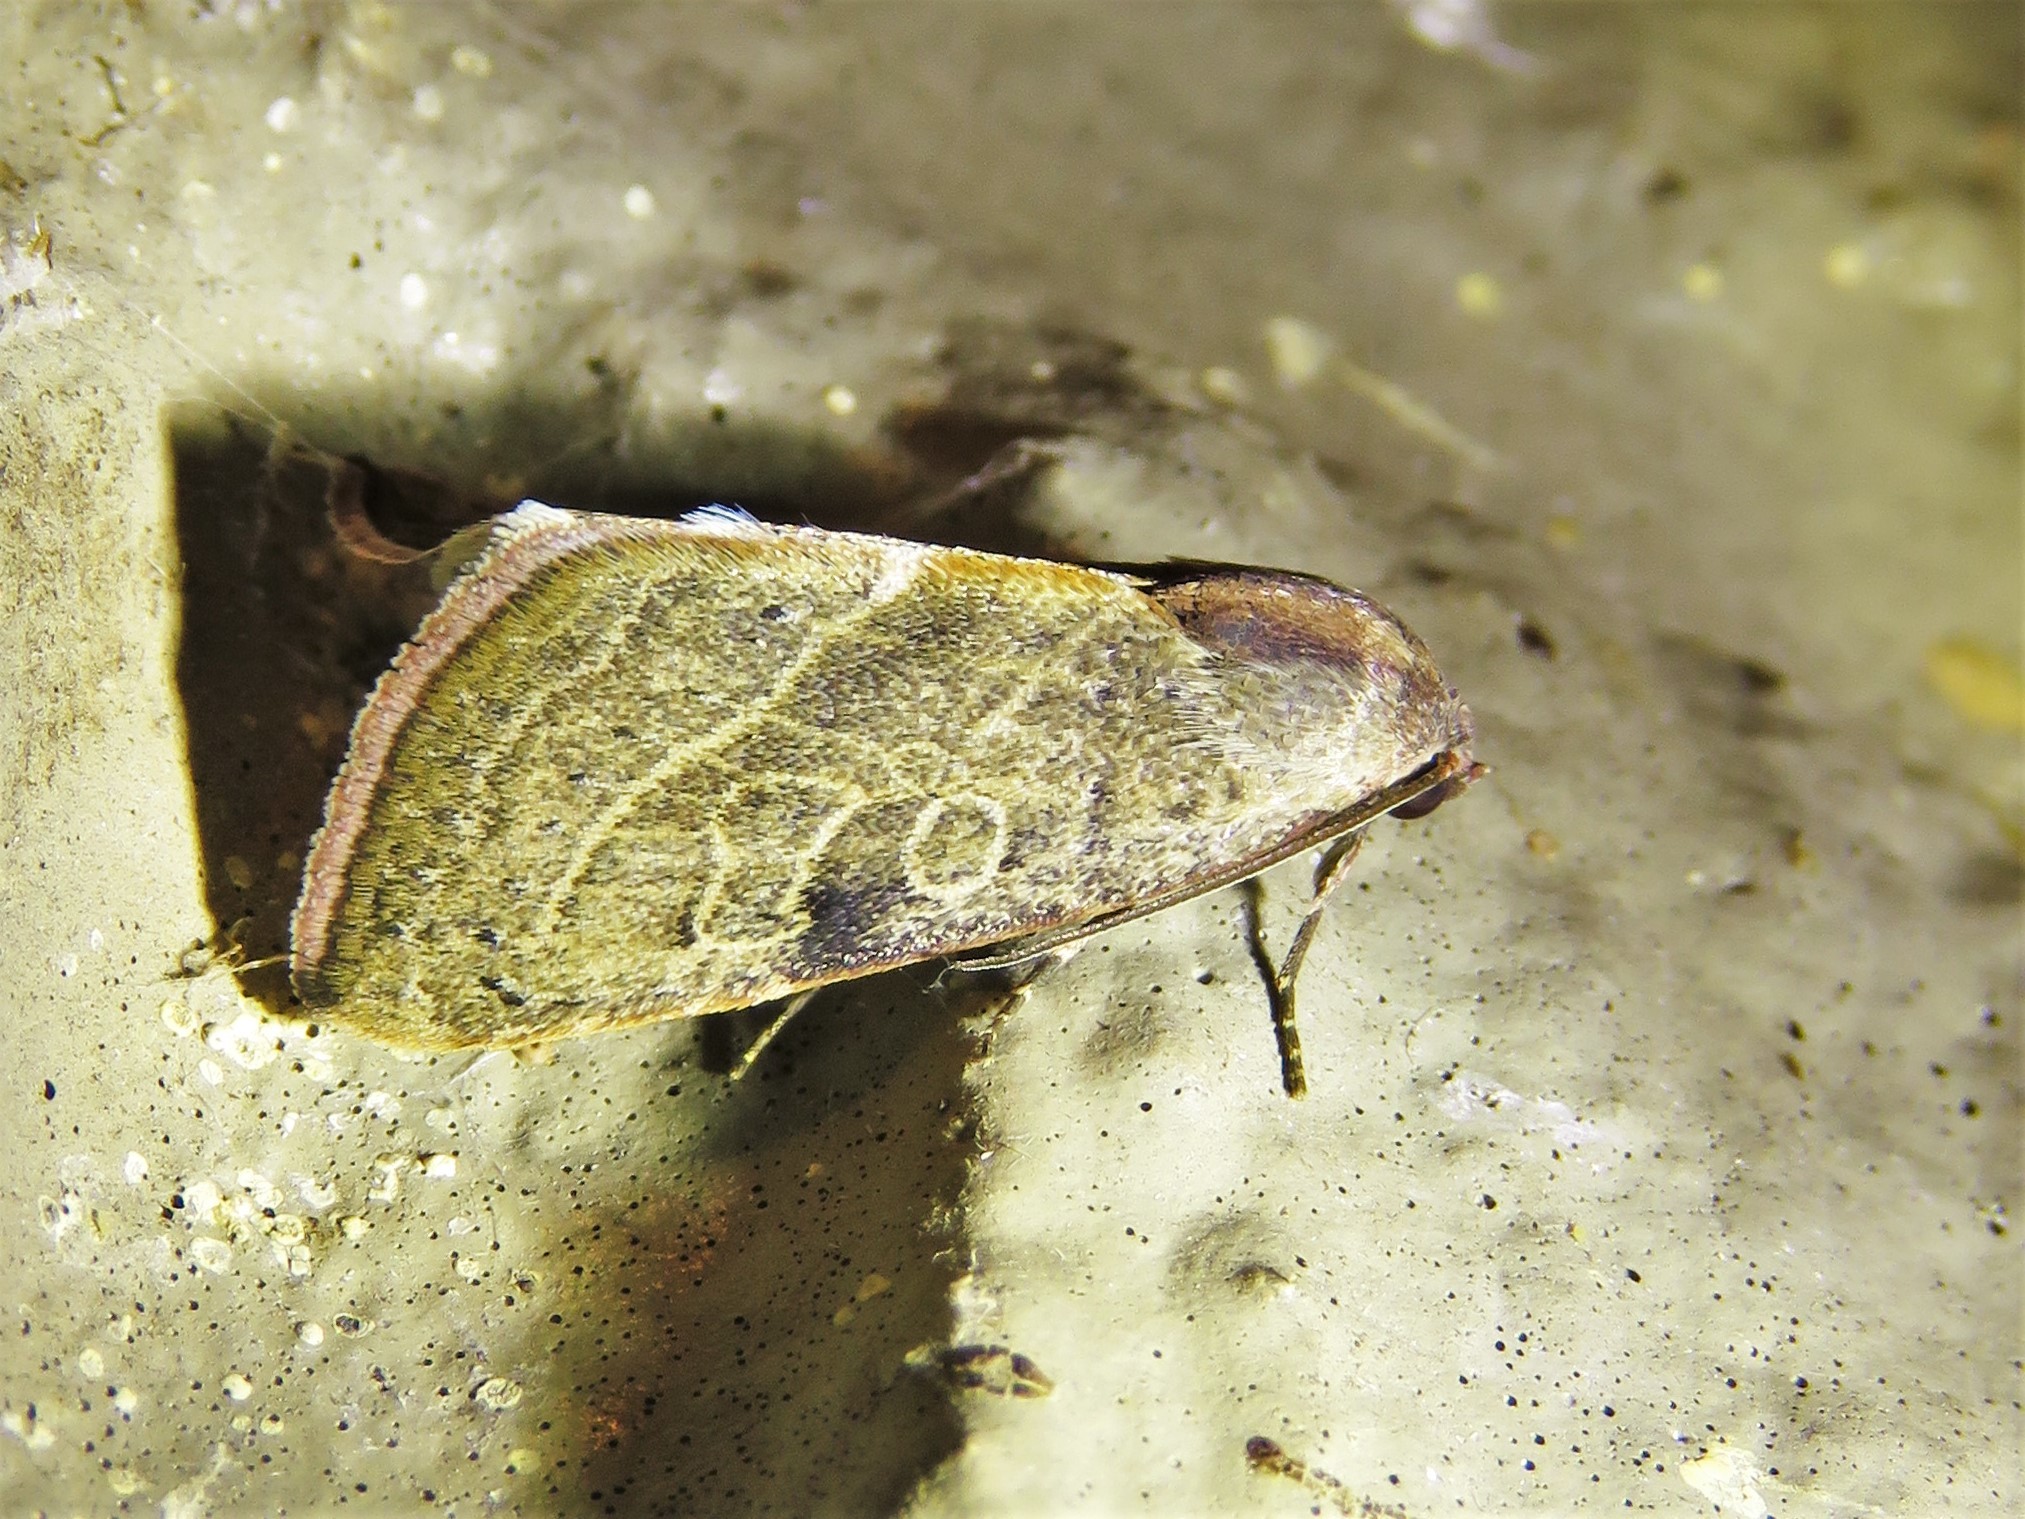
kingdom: Animalia
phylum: Arthropoda
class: Insecta
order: Lepidoptera
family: Noctuidae
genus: Galgula
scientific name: Galgula partita
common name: Wedgeling
